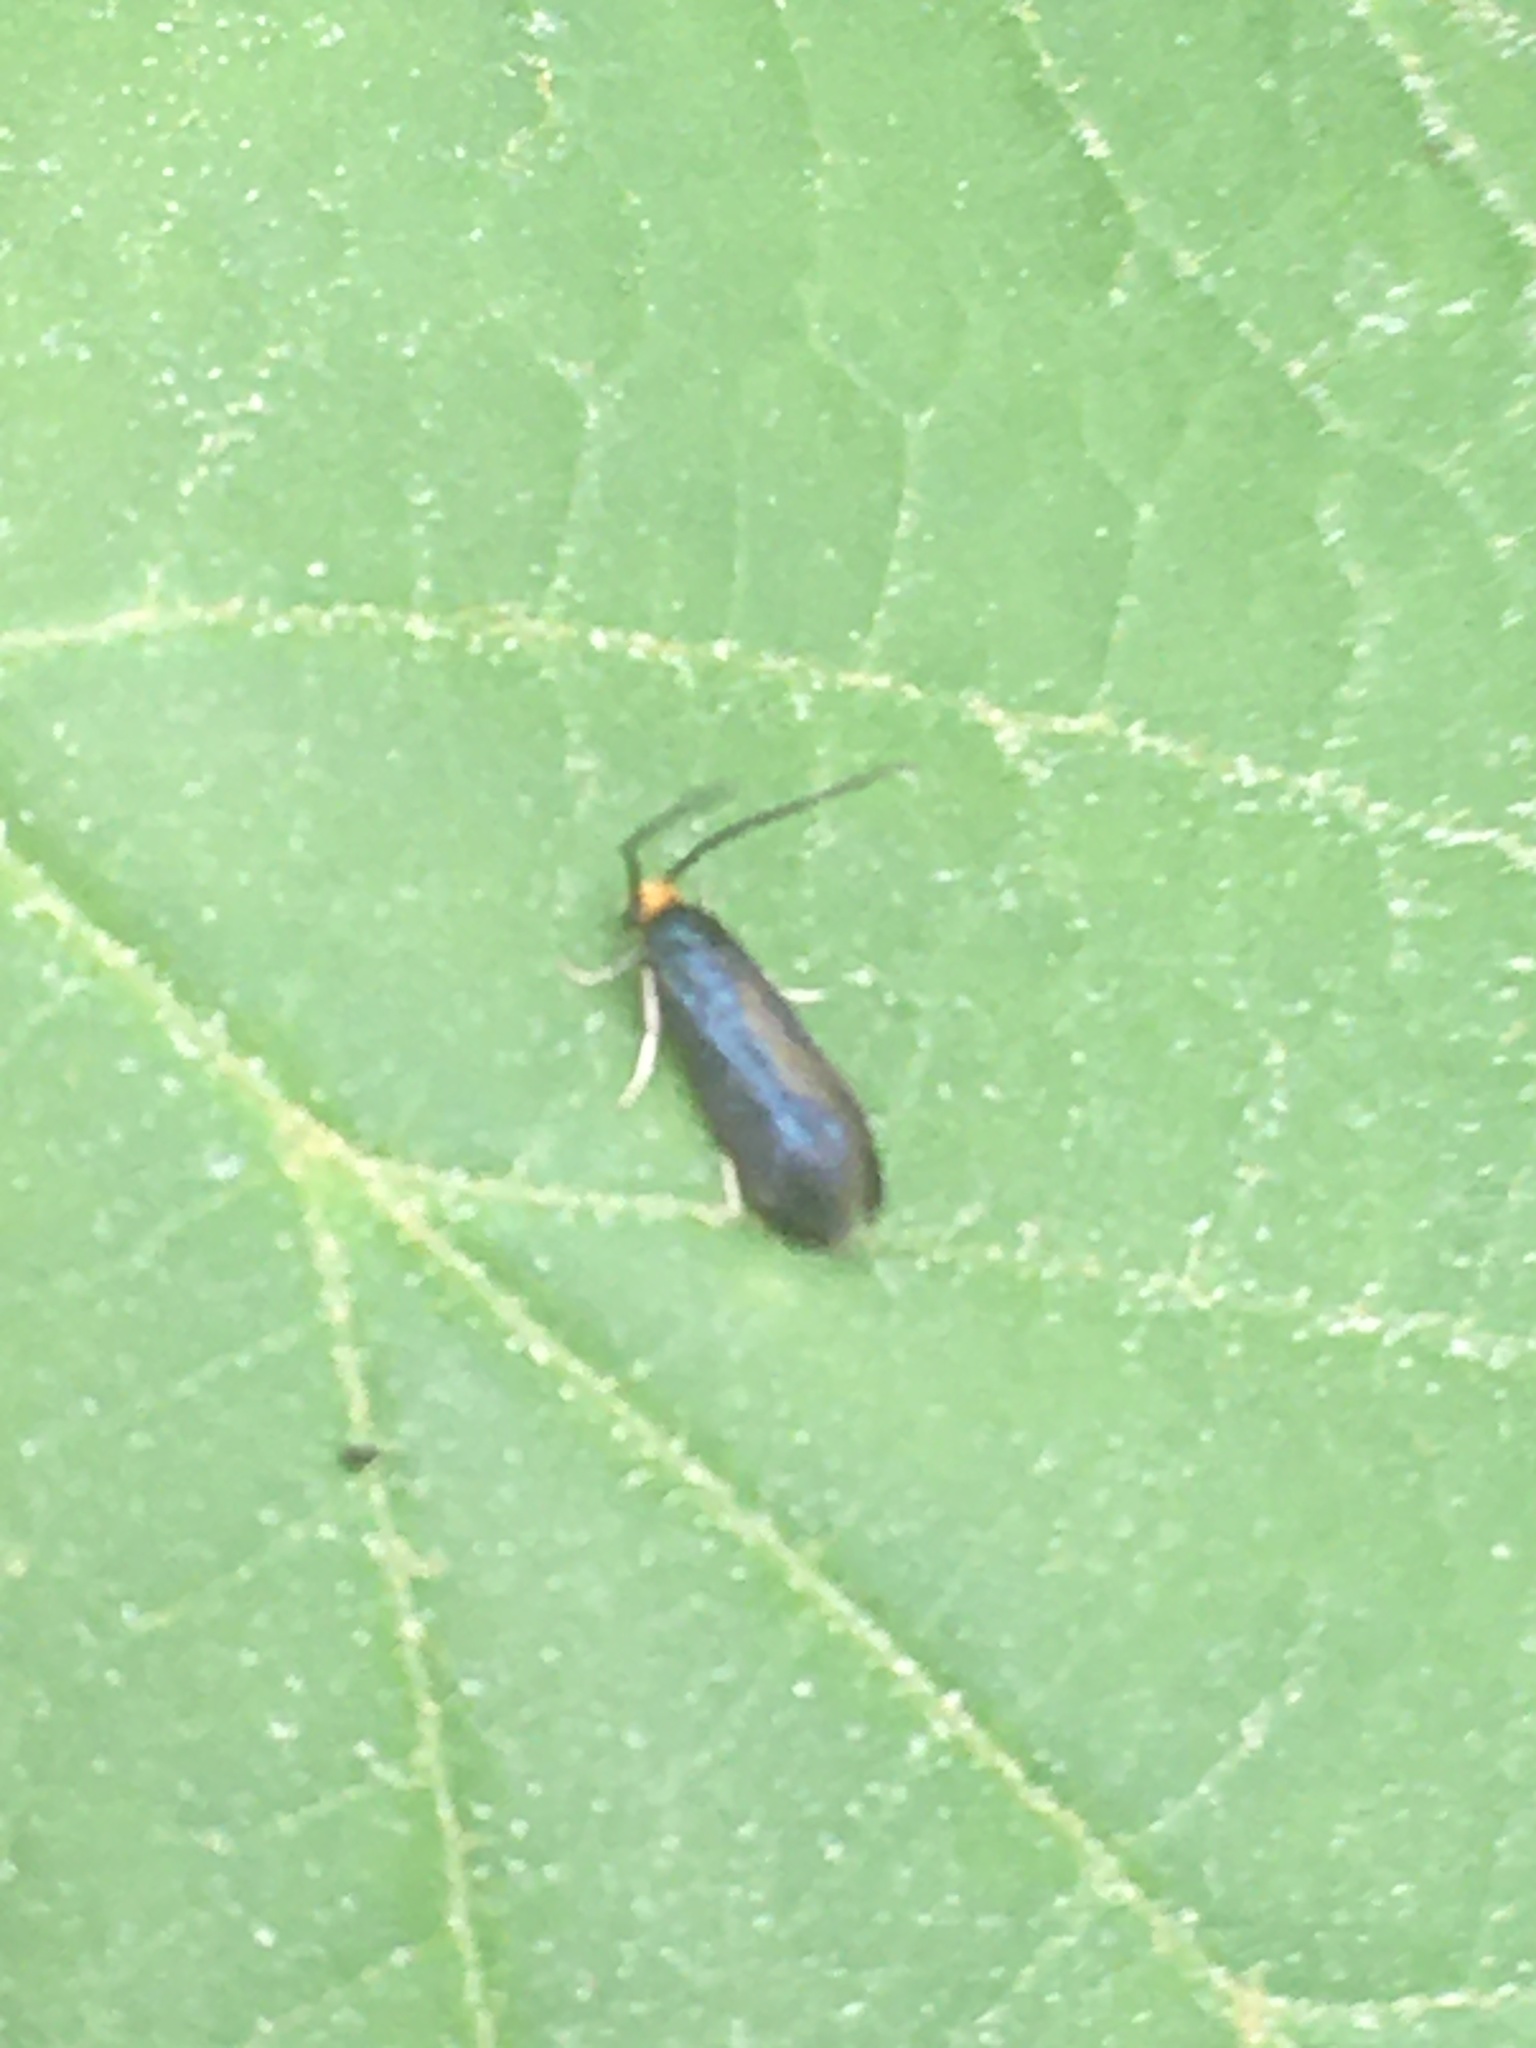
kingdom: Animalia
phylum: Arthropoda
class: Insecta
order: Lepidoptera
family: Incurvariidae
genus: Paraclemensia
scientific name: Paraclemensia acerifoliella
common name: Maple leafcutter
